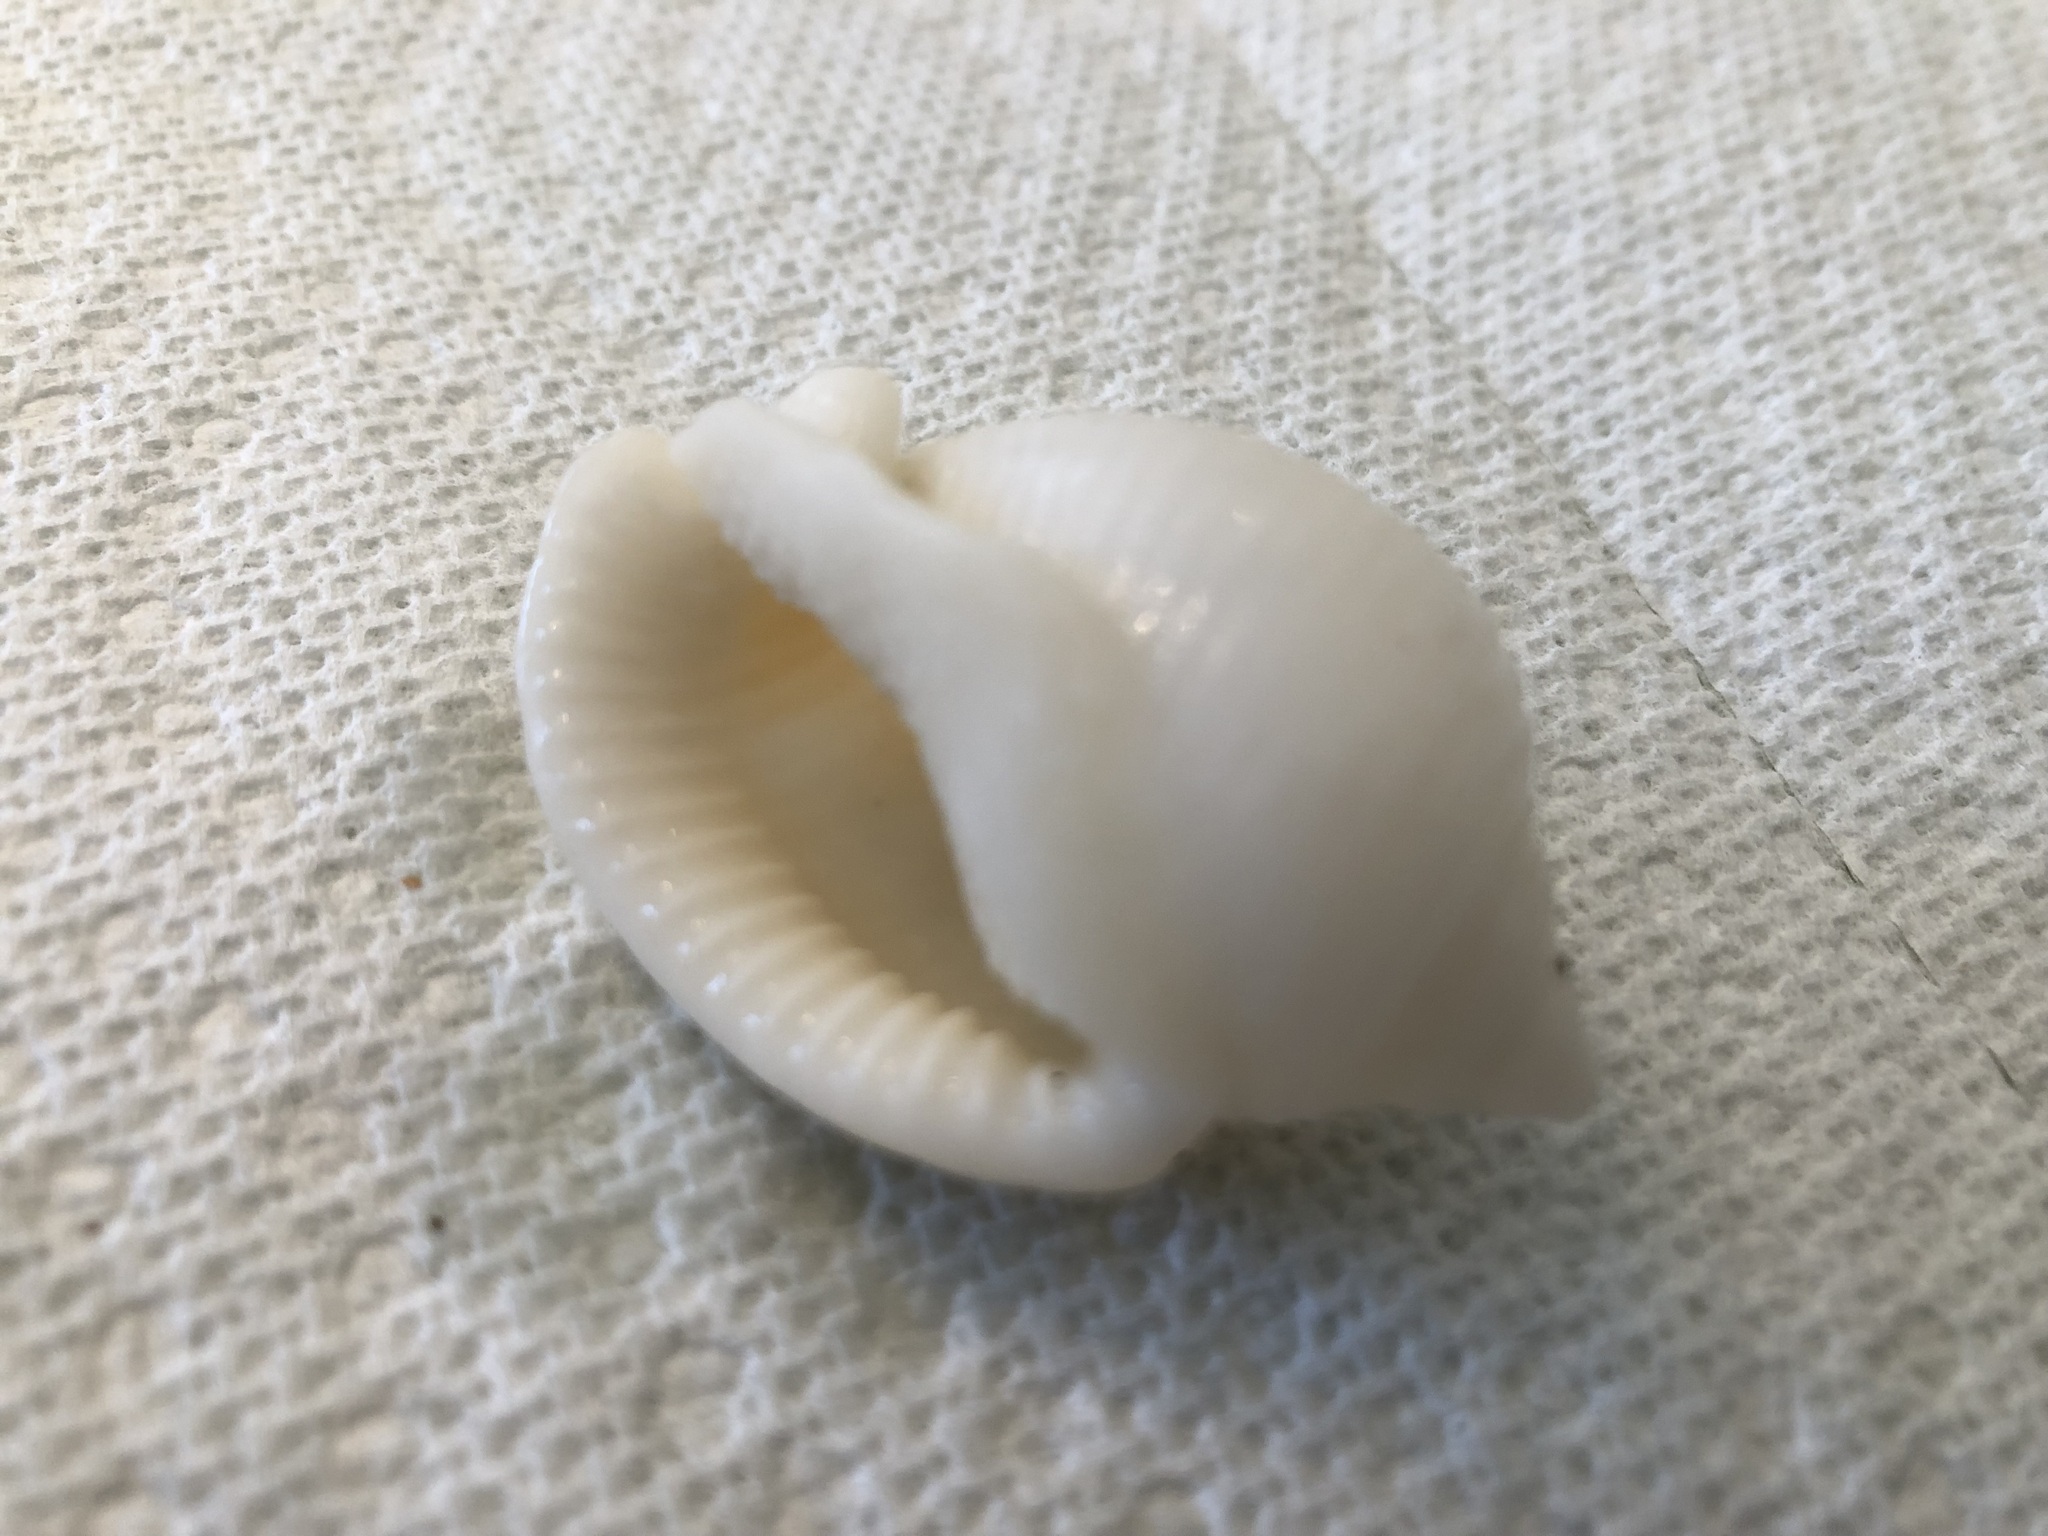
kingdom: Animalia
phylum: Mollusca
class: Gastropoda
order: Littorinimorpha
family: Cassidae
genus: Semicassis
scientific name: Semicassis granulata
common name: Scotch bonnet
